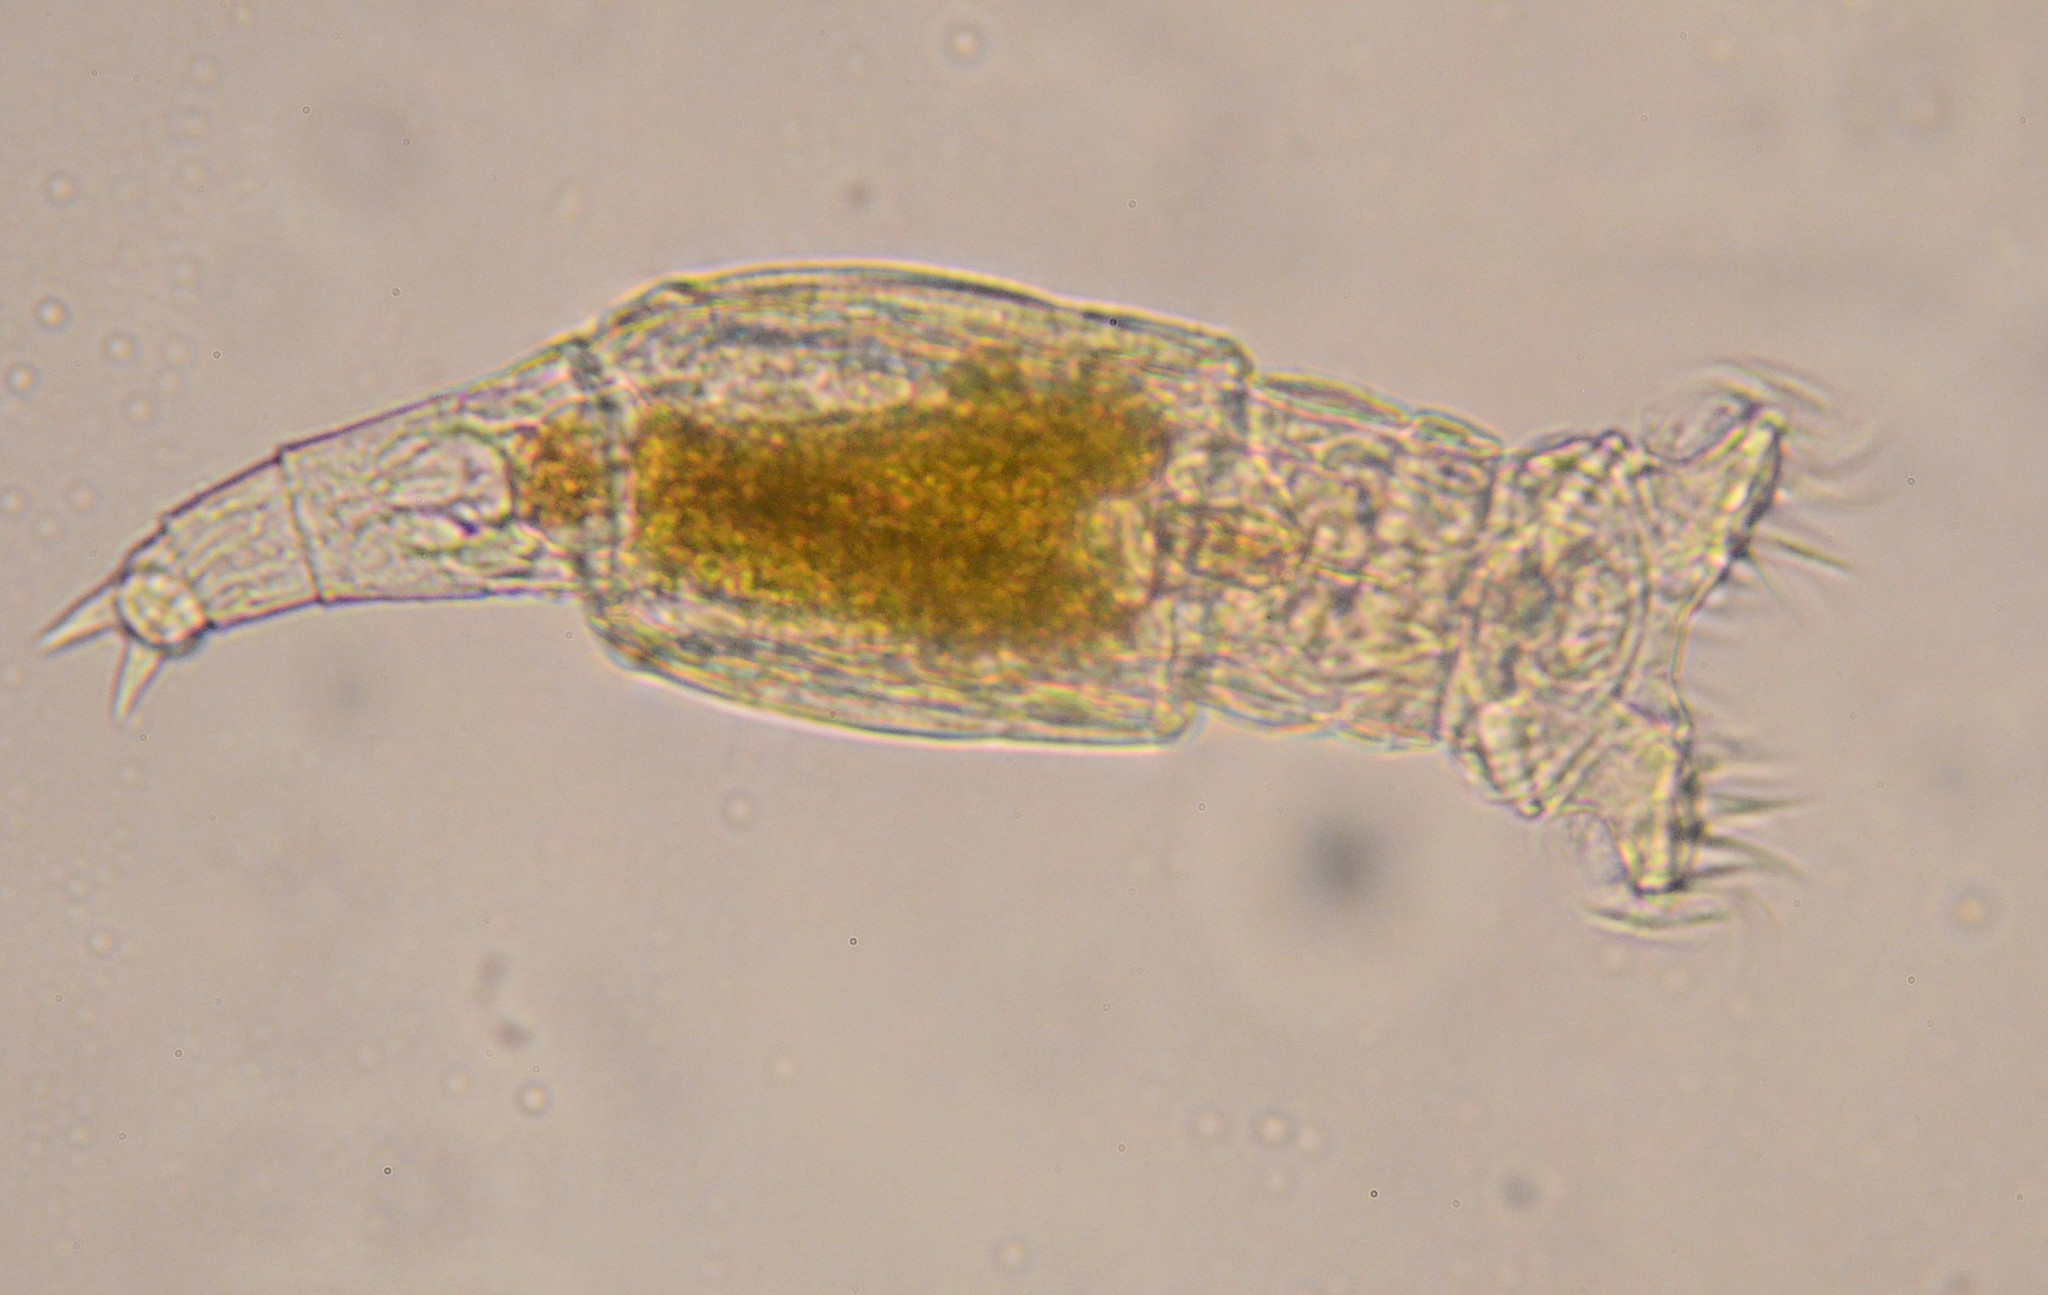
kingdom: Animalia
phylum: Rotifera
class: Eurotatoria
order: Bdelloidea
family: Philodinidae
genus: Philodina
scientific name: Philodina acuticornis
